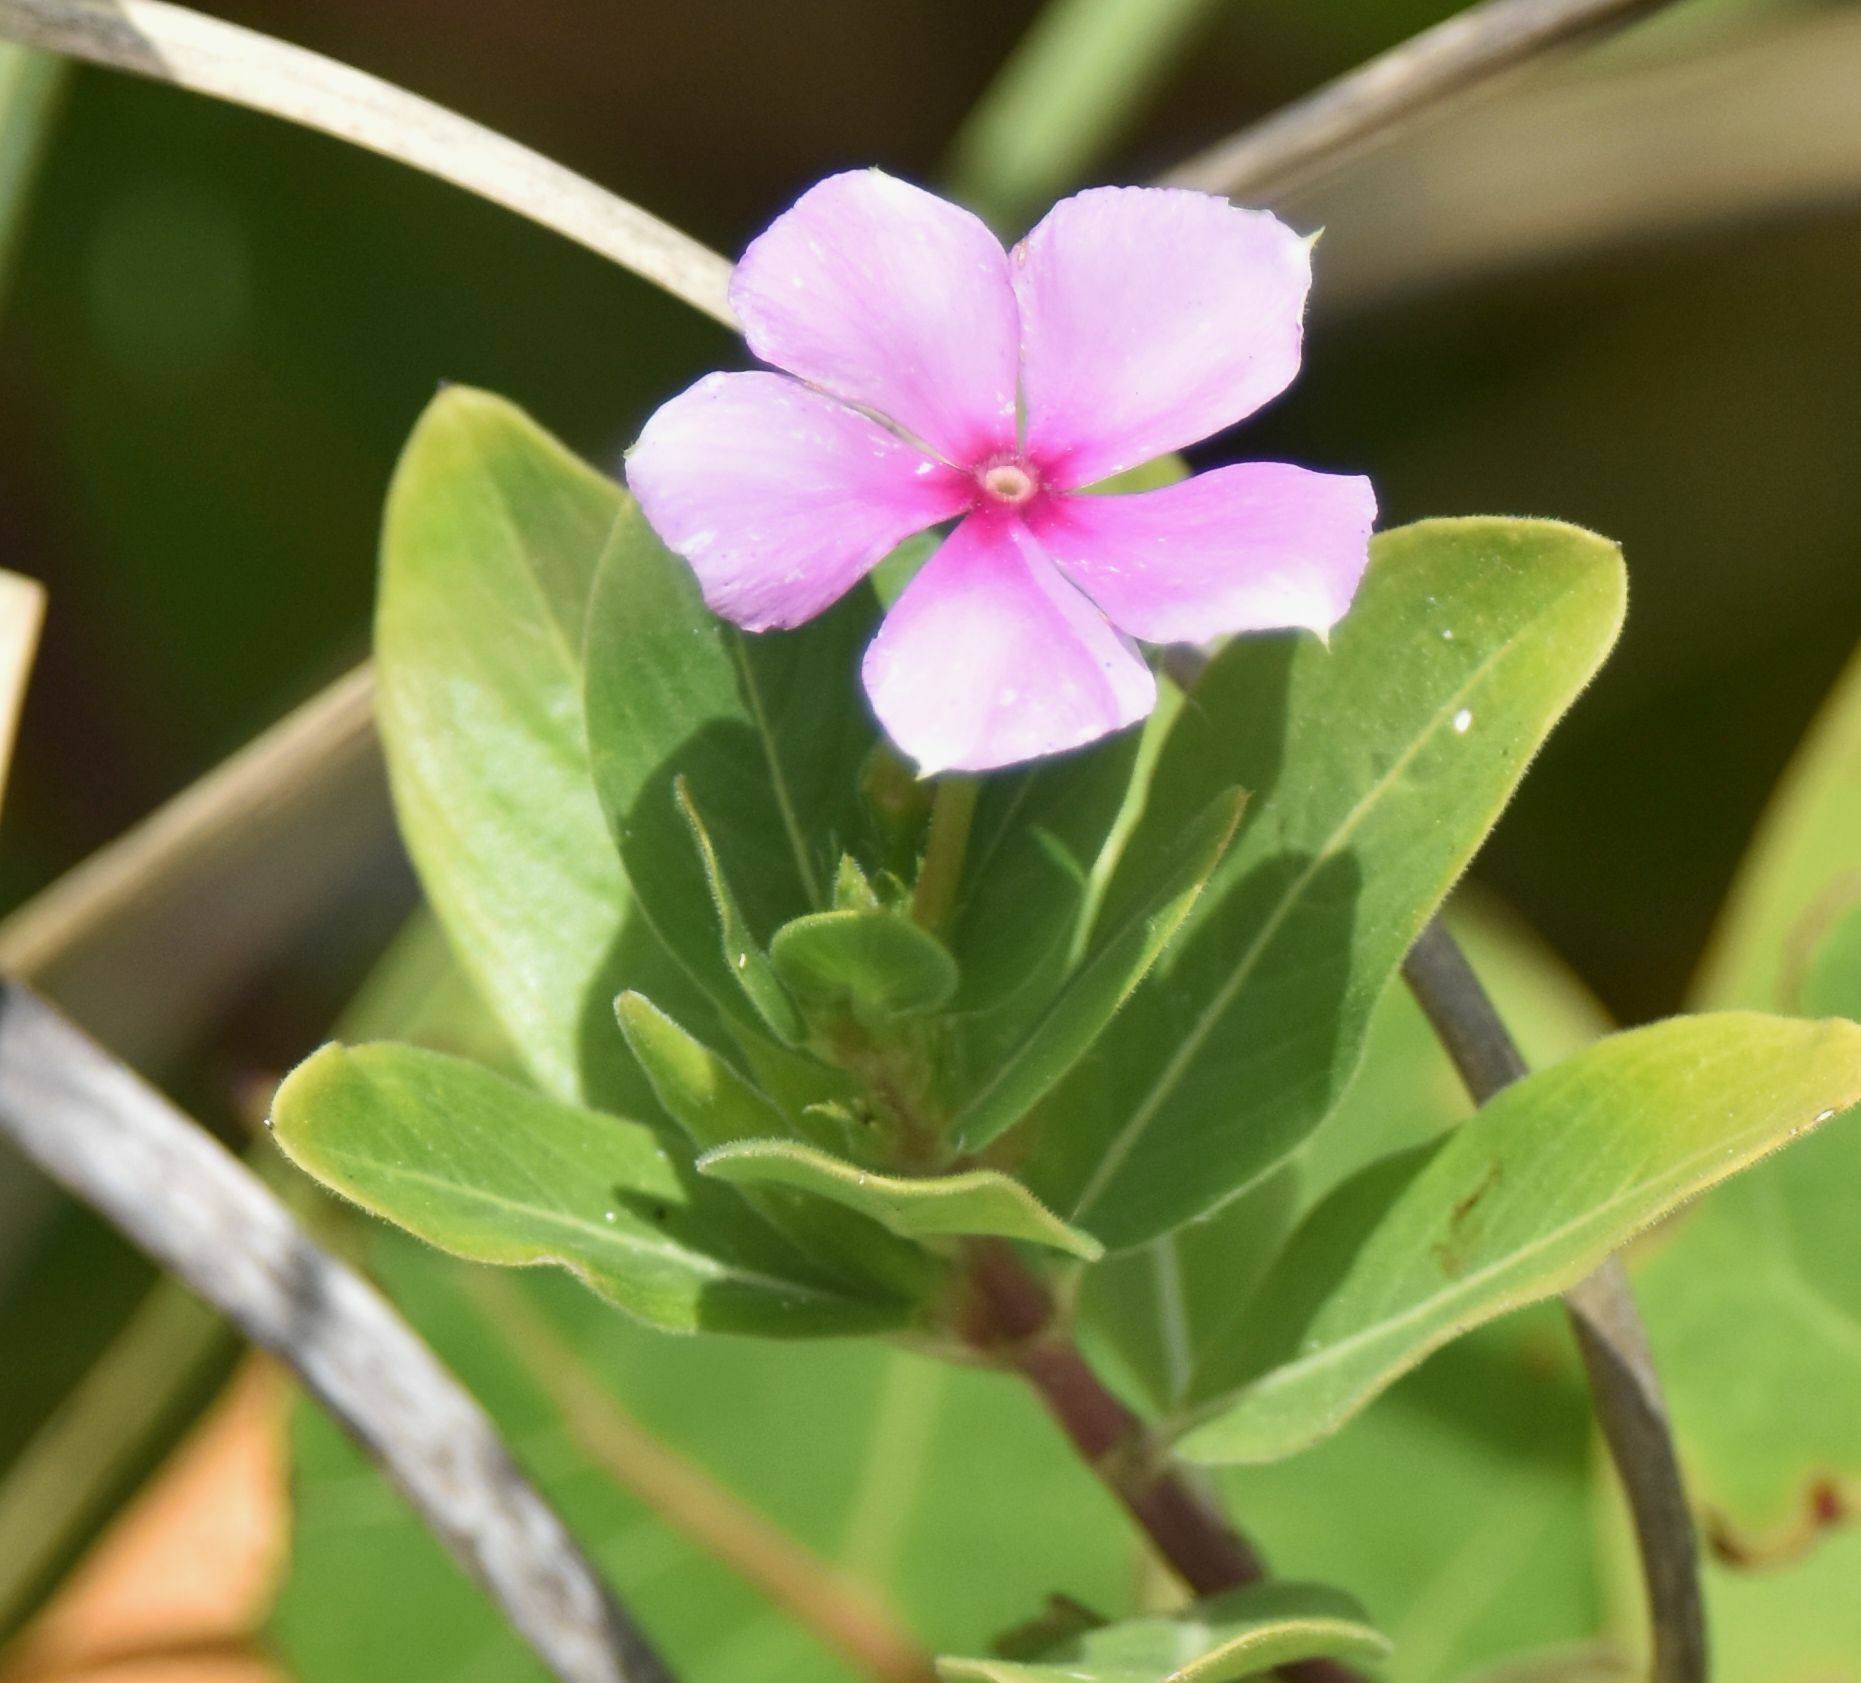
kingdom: Plantae
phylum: Tracheophyta
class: Magnoliopsida
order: Gentianales
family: Apocynaceae
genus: Catharanthus
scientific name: Catharanthus roseus
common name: Madagascar periwinkle
